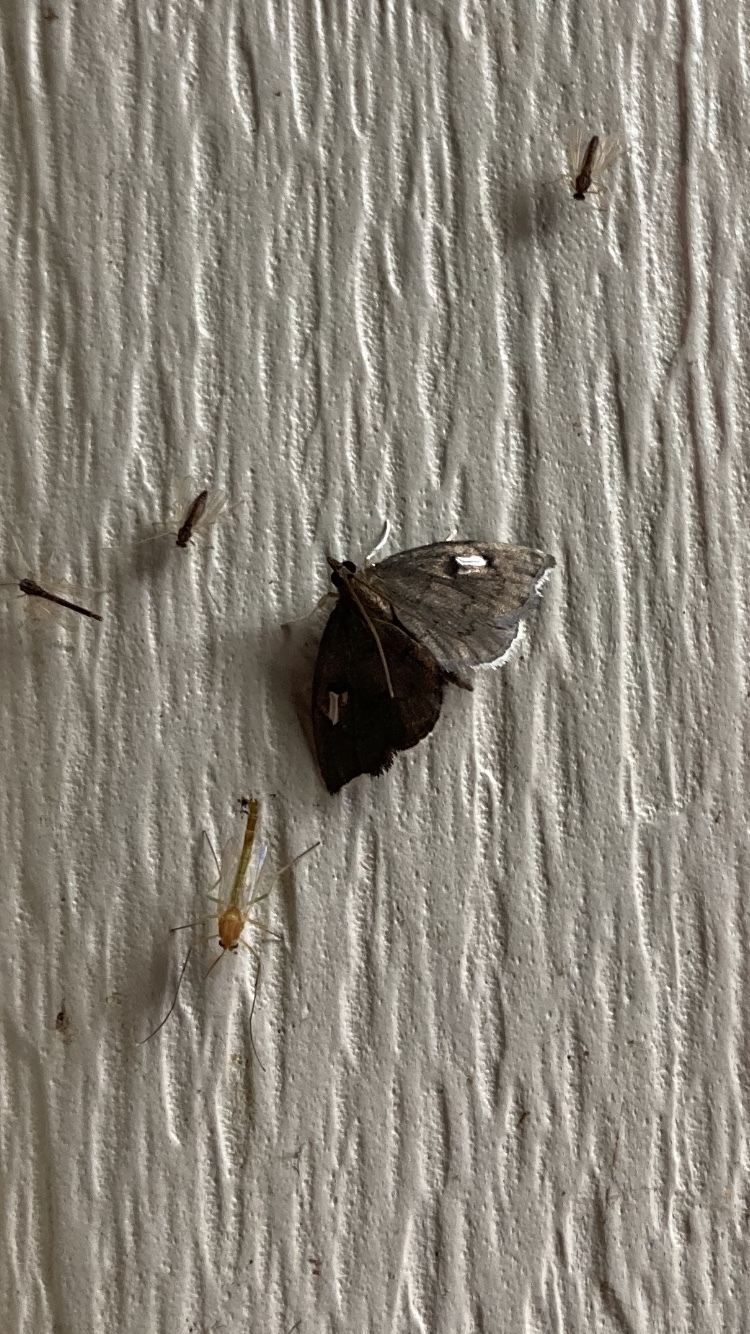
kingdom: Animalia
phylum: Arthropoda
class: Insecta
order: Lepidoptera
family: Crambidae
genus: Perispasta
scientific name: Perispasta caeculalis
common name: Titian peale's moth
